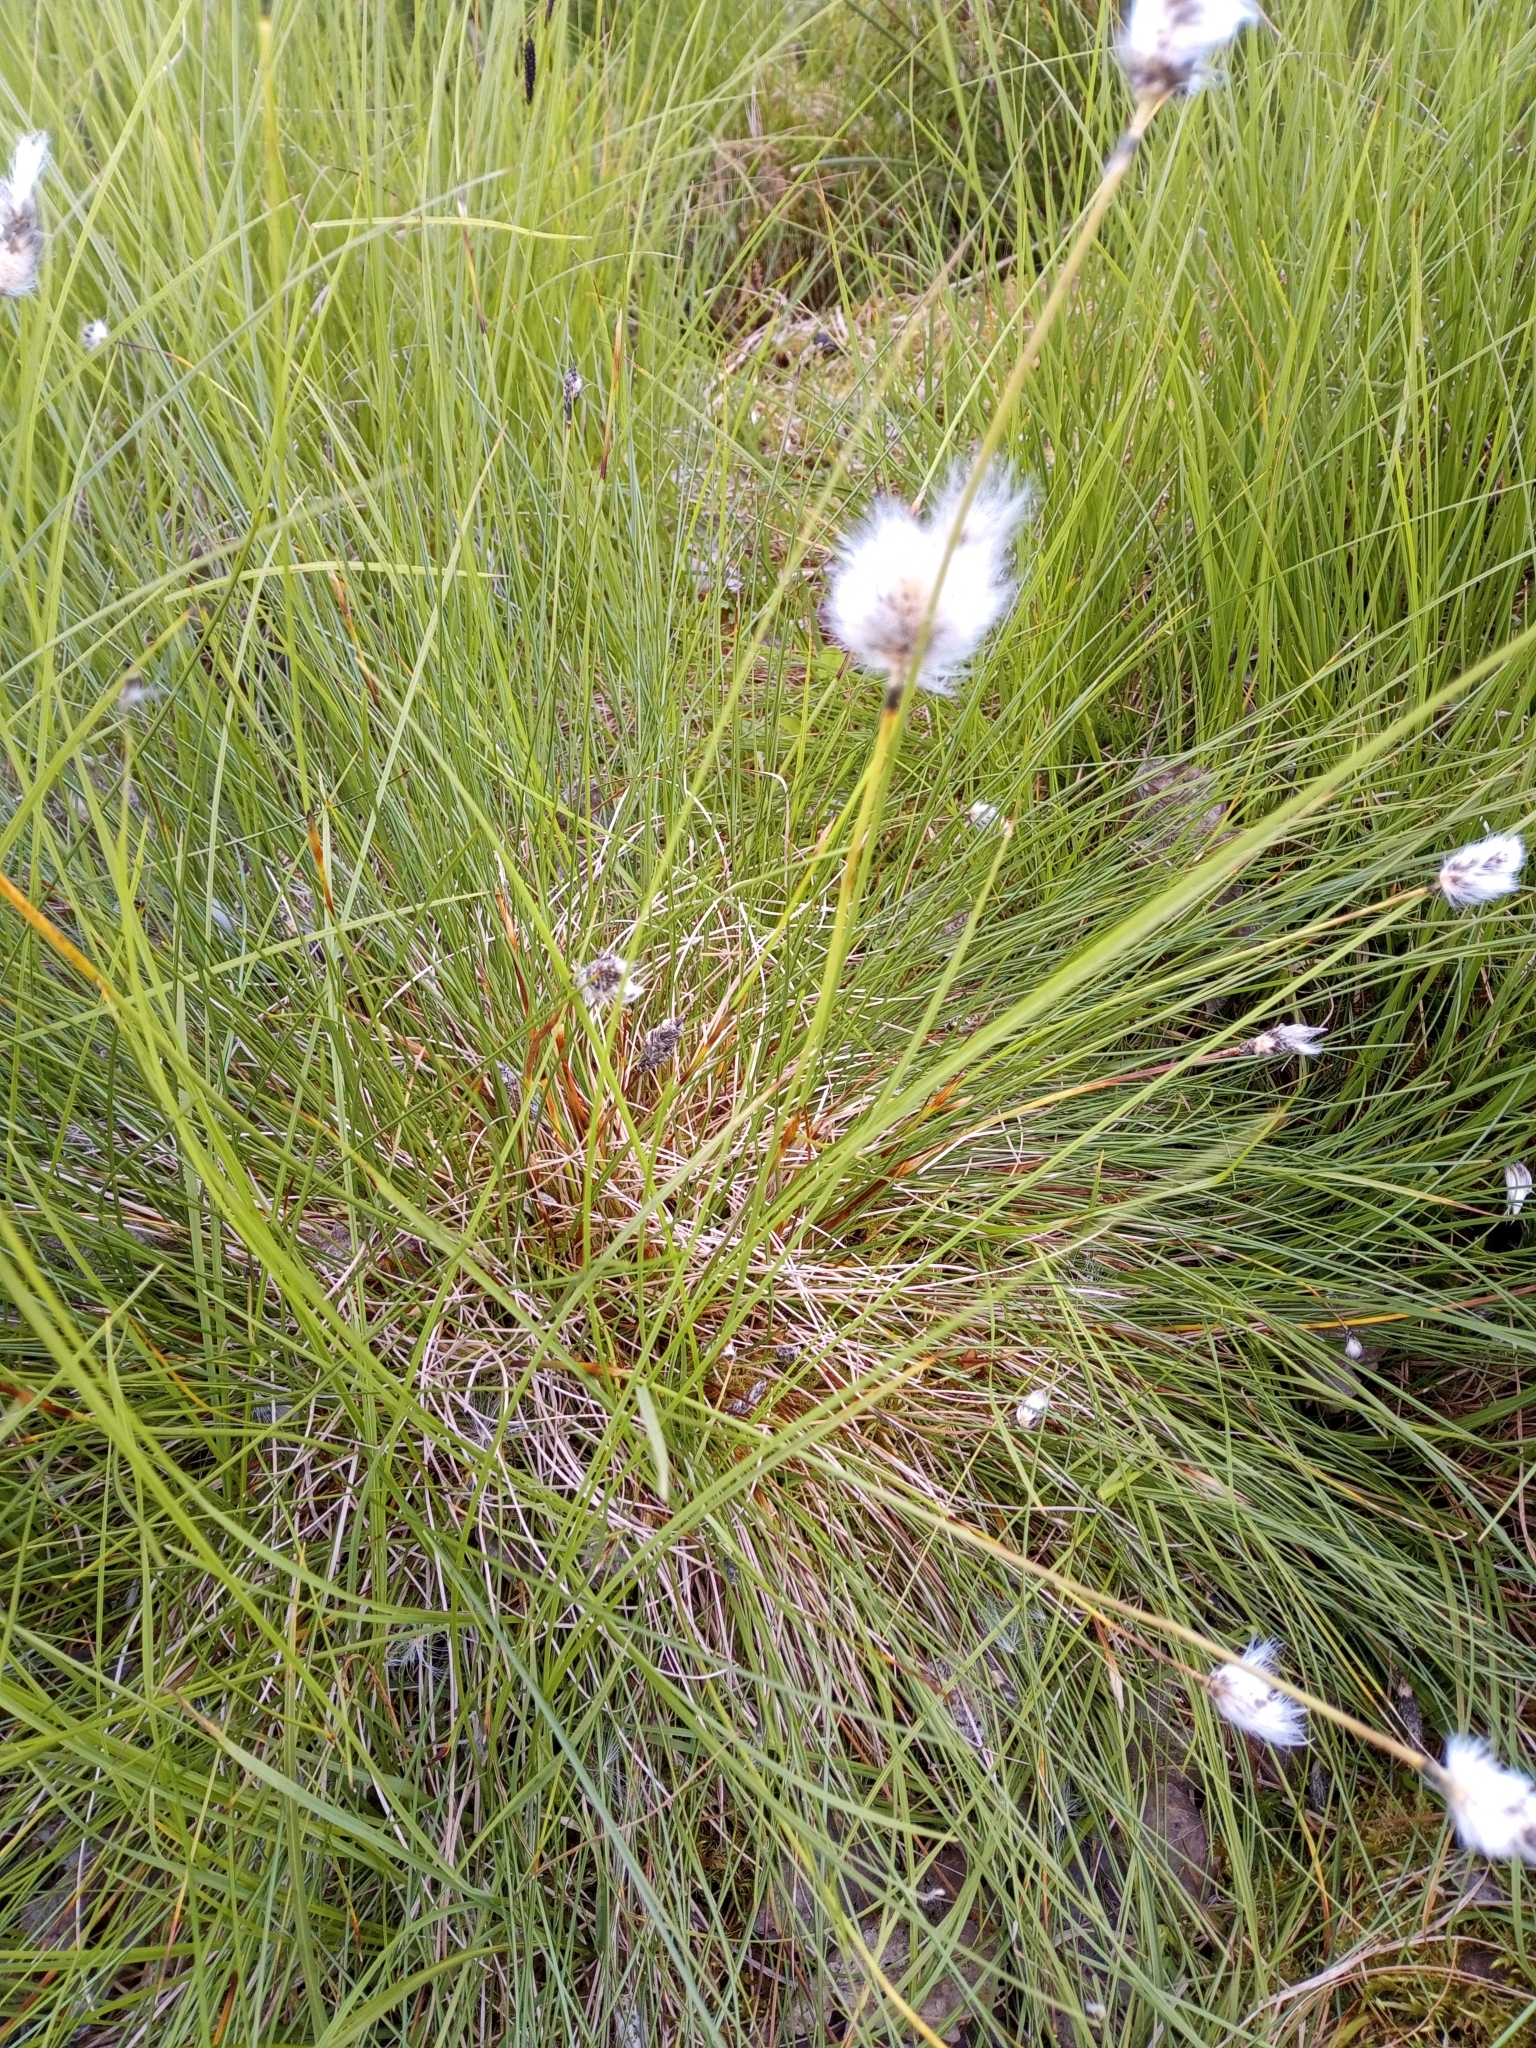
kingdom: Plantae
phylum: Tracheophyta
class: Liliopsida
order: Poales
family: Cyperaceae
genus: Eriophorum
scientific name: Eriophorum vaginatum
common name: Hare's-tail cottongrass
